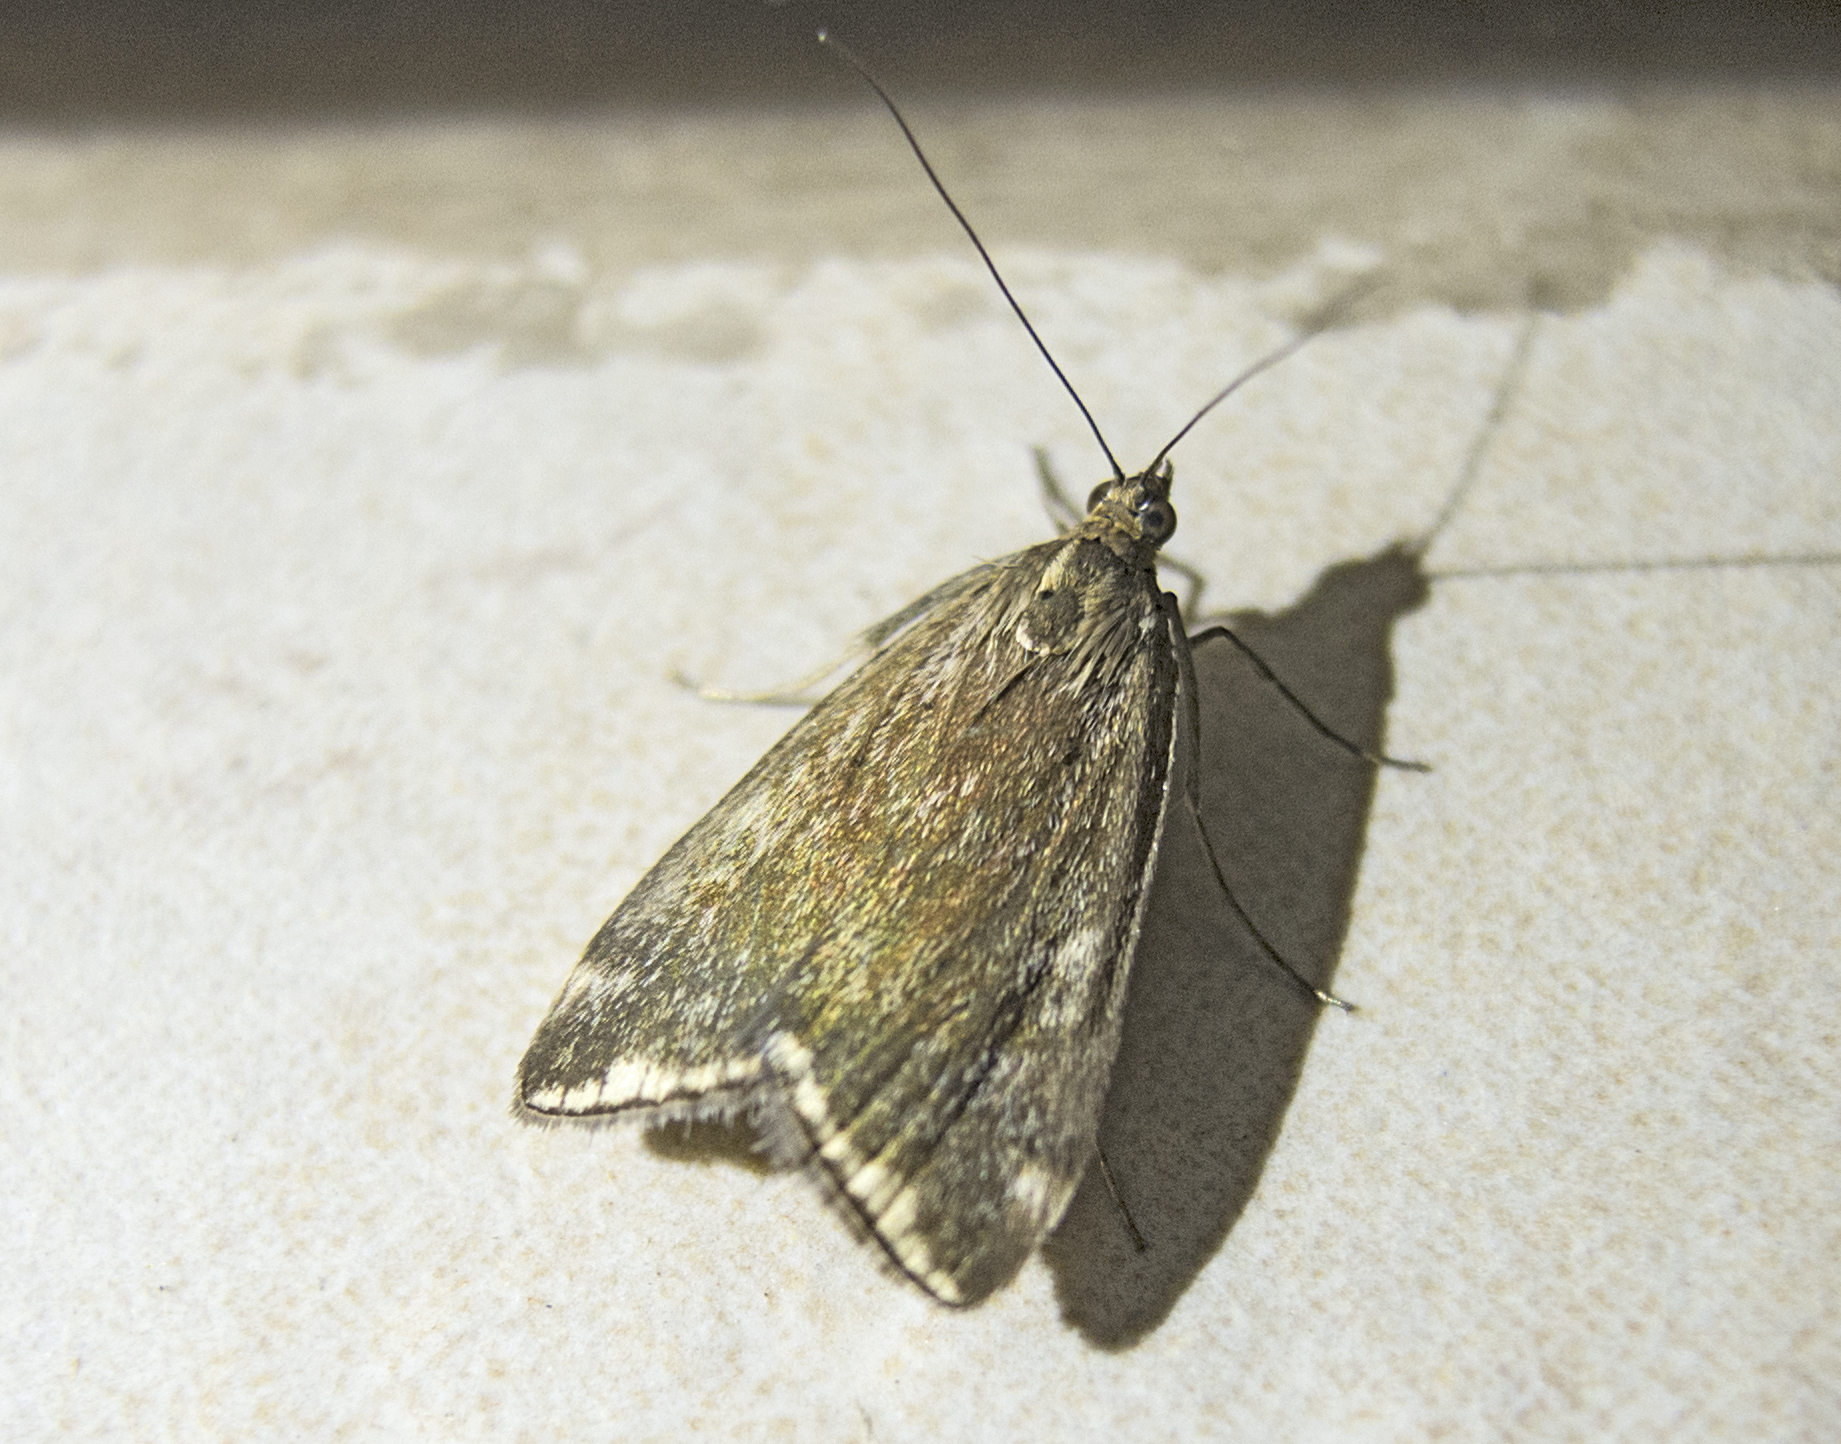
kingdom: Animalia
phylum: Arthropoda
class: Insecta
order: Lepidoptera
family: Crambidae
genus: Loxostege
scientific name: Loxostege sticticalis
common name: Crambid moth
